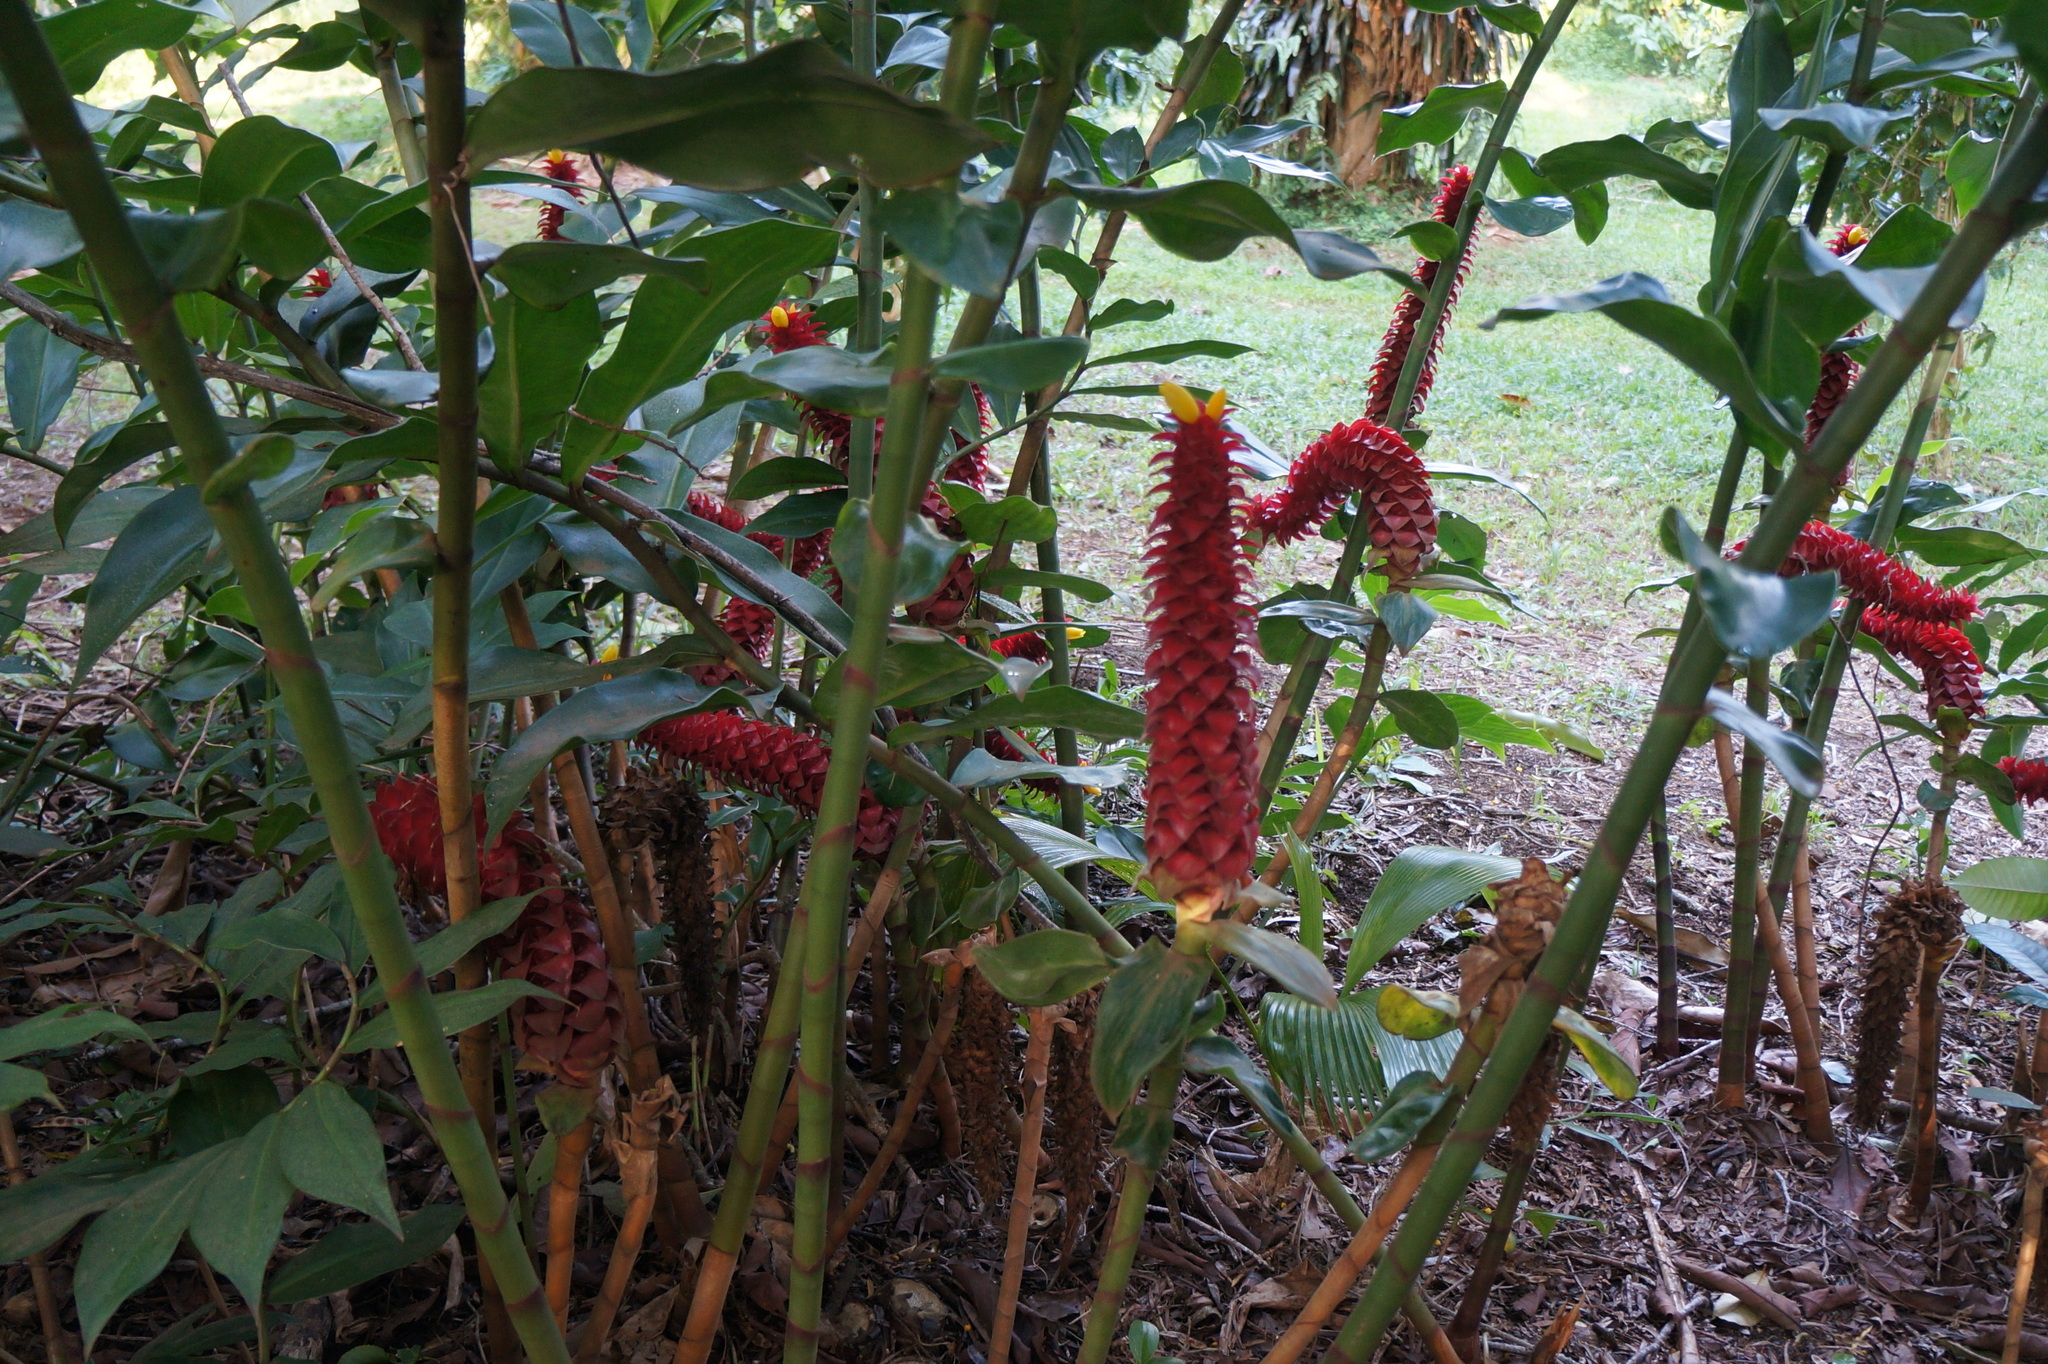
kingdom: Plantae
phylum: Tracheophyta
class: Liliopsida
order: Zingiberales
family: Costaceae
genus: Costus
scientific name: Costus comosus
